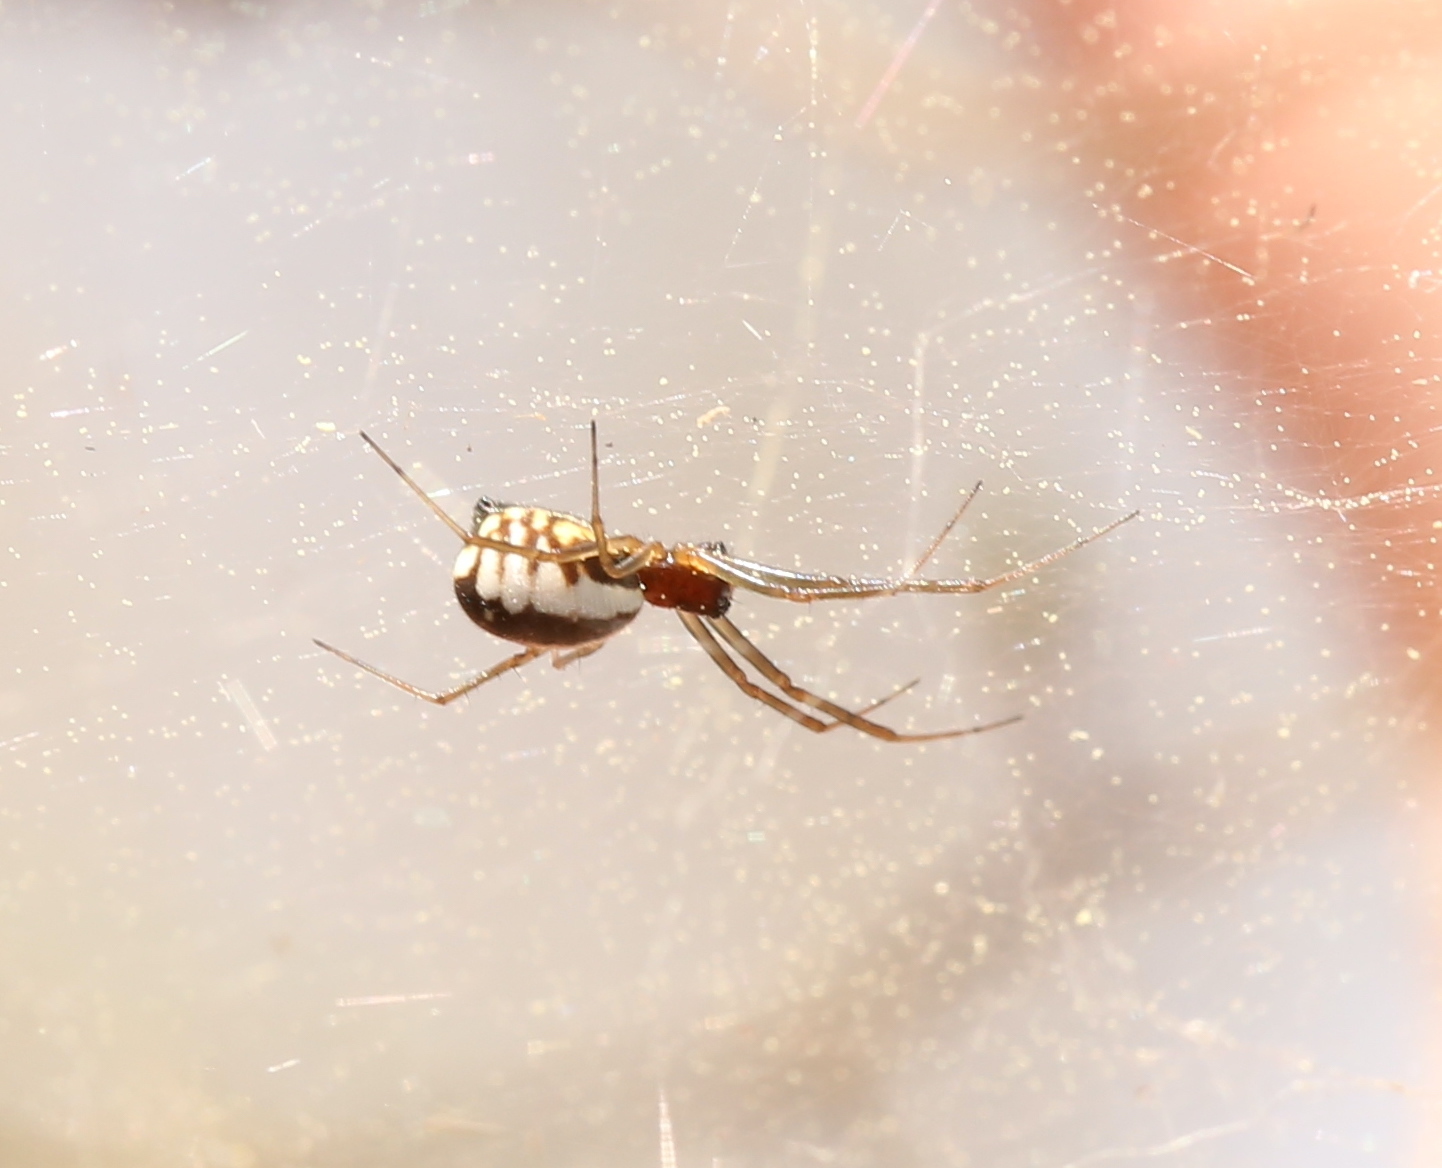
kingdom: Animalia
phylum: Arthropoda
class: Arachnida
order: Araneae
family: Linyphiidae
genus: Frontinella
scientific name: Frontinella pyramitela
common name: Bowl-and-doily spider
